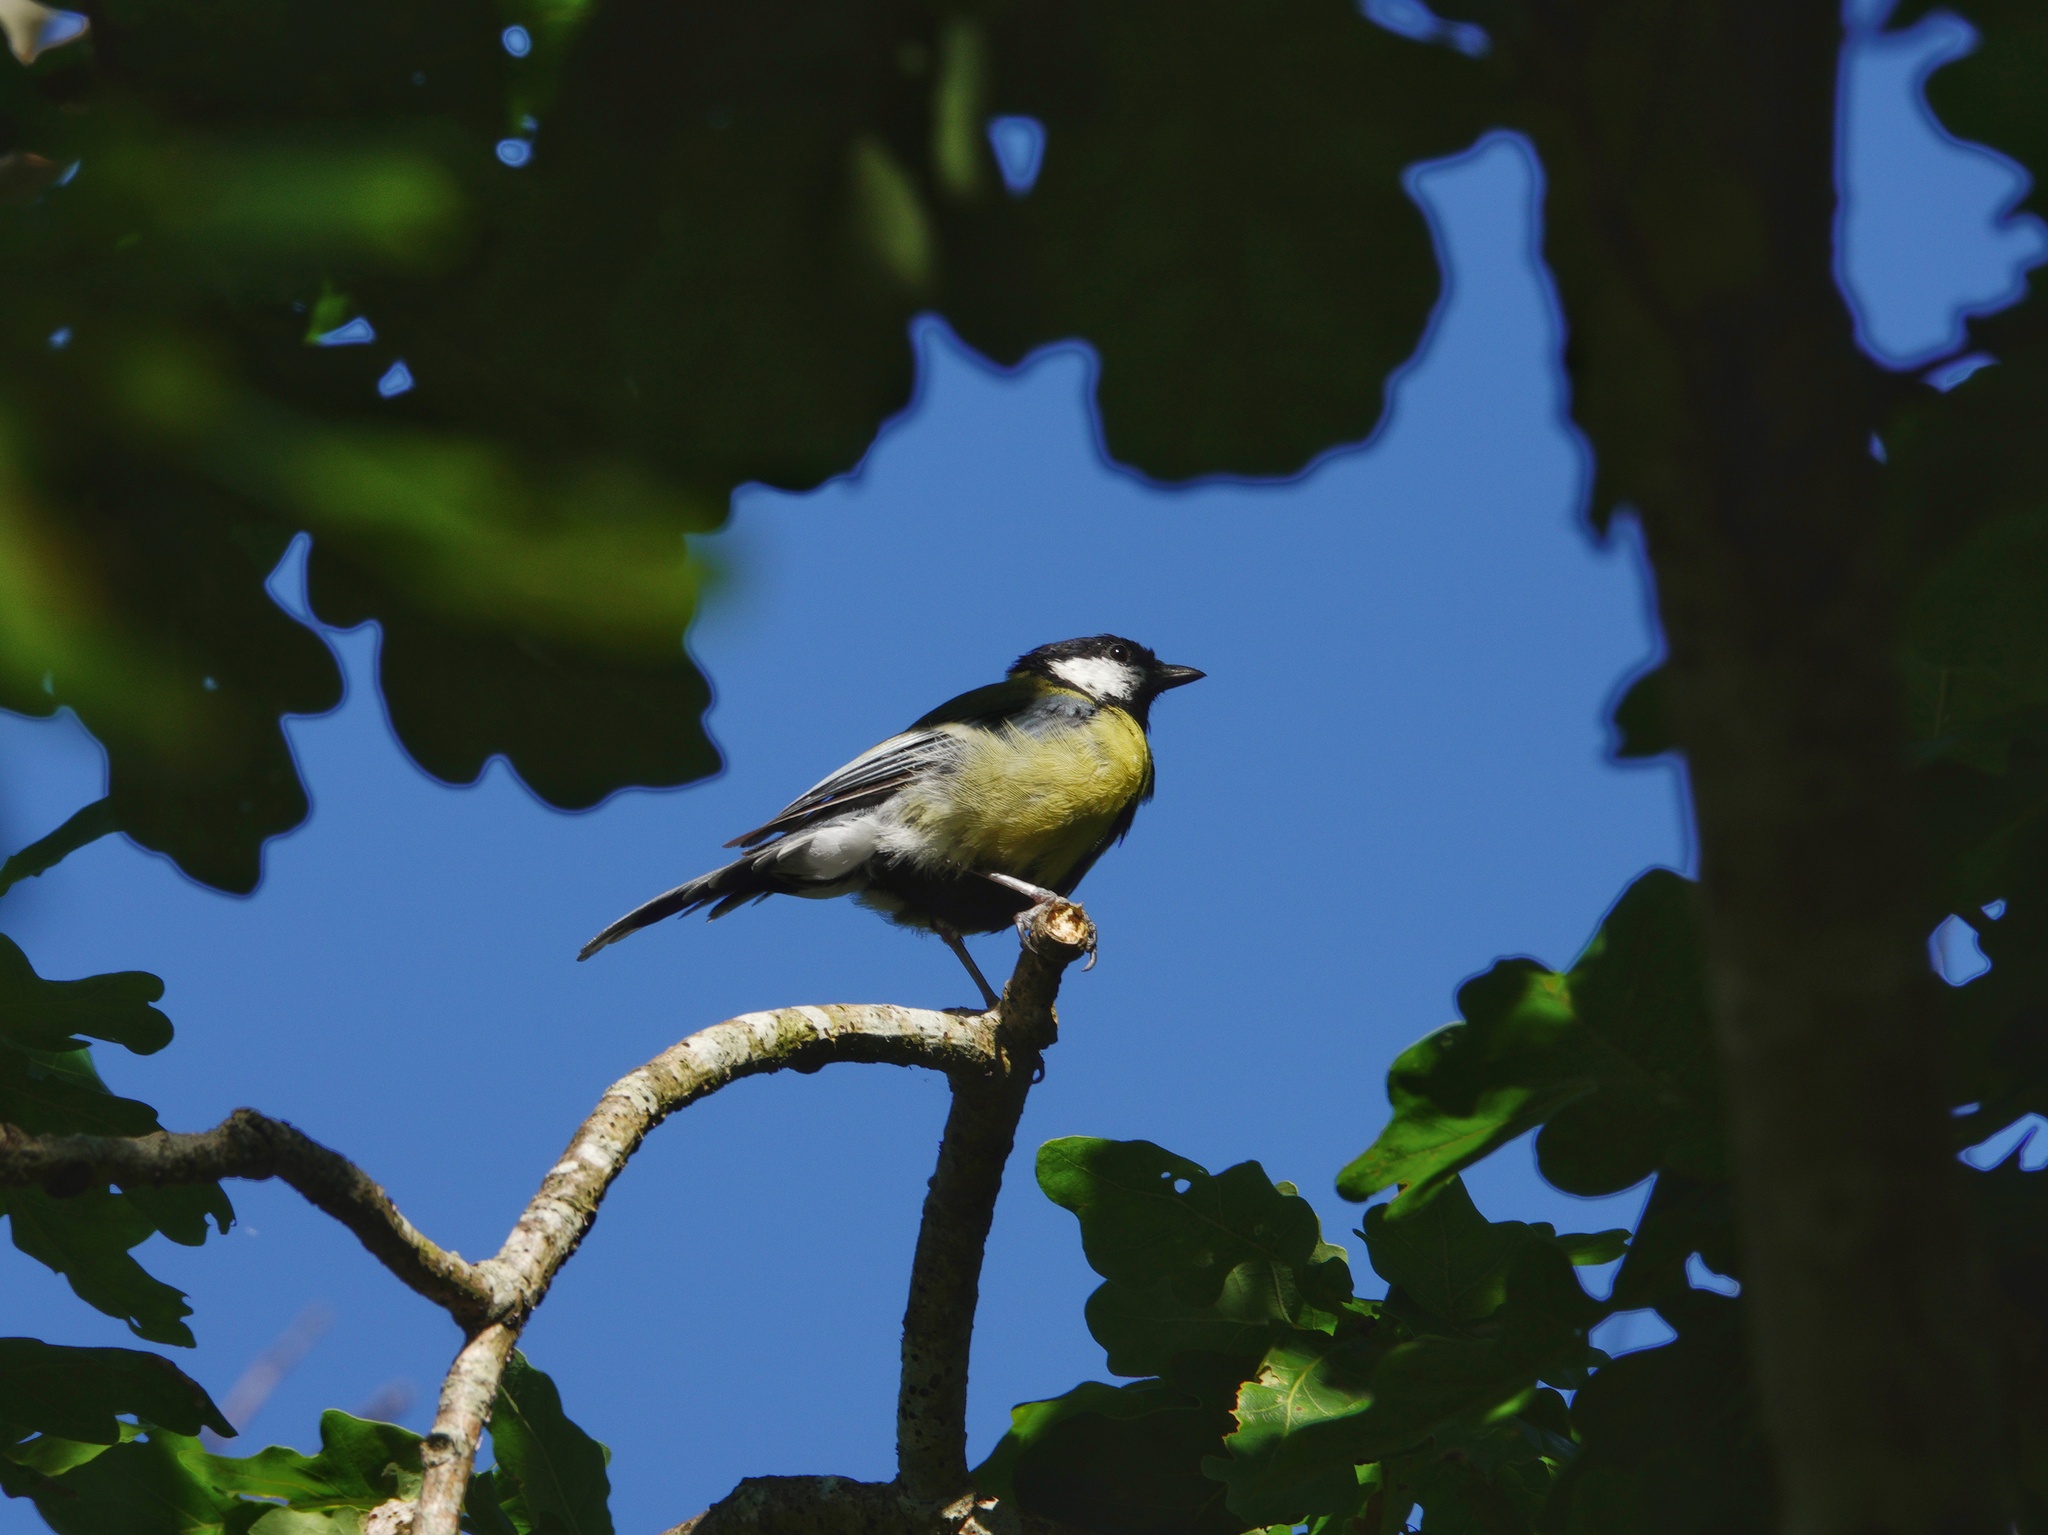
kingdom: Animalia
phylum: Chordata
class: Aves
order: Passeriformes
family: Paridae
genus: Parus
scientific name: Parus major
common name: Great tit
